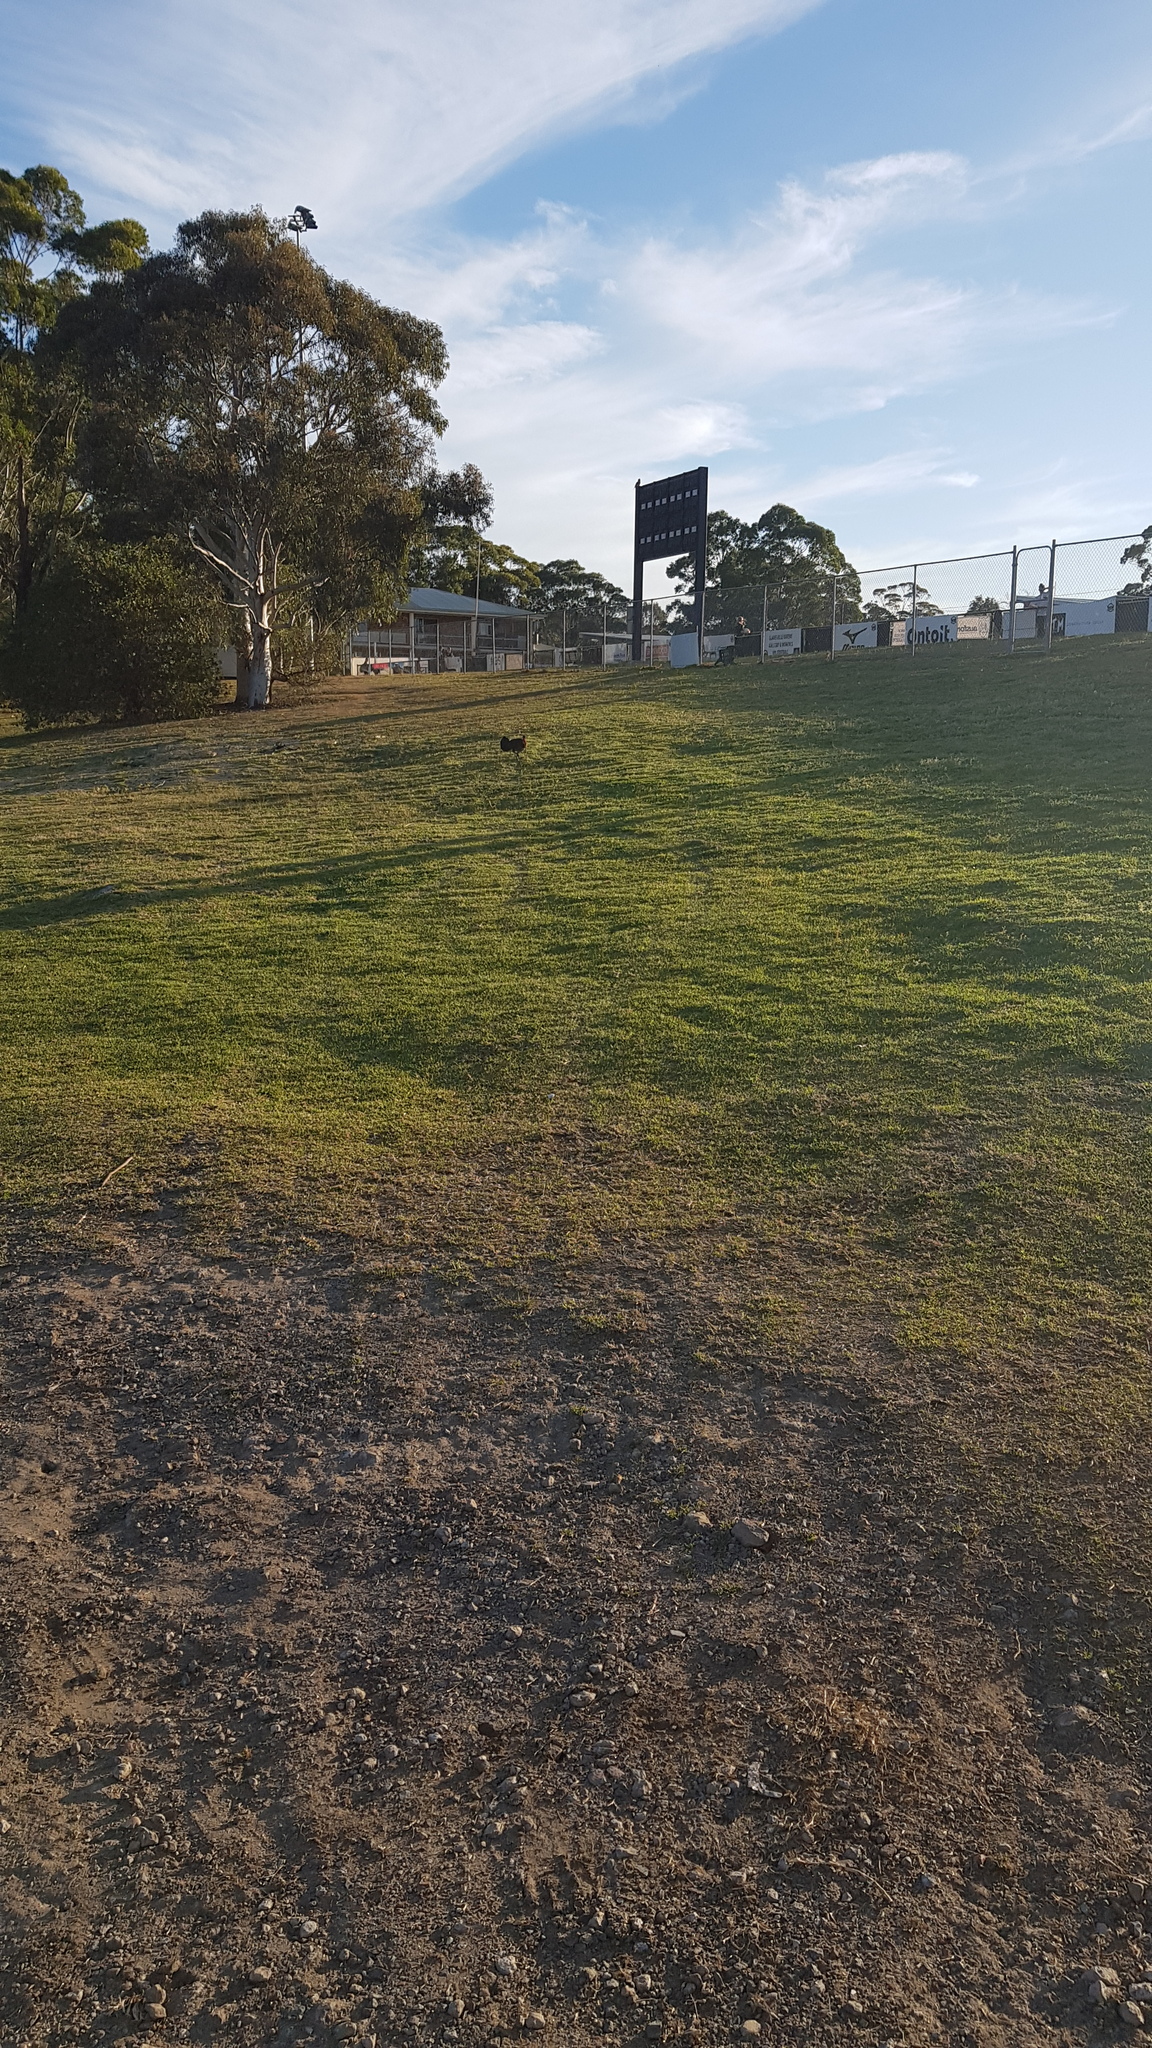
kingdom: Animalia
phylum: Chordata
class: Aves
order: Galliformes
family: Megapodiidae
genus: Alectura
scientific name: Alectura lathami
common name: Australian brushturkey
